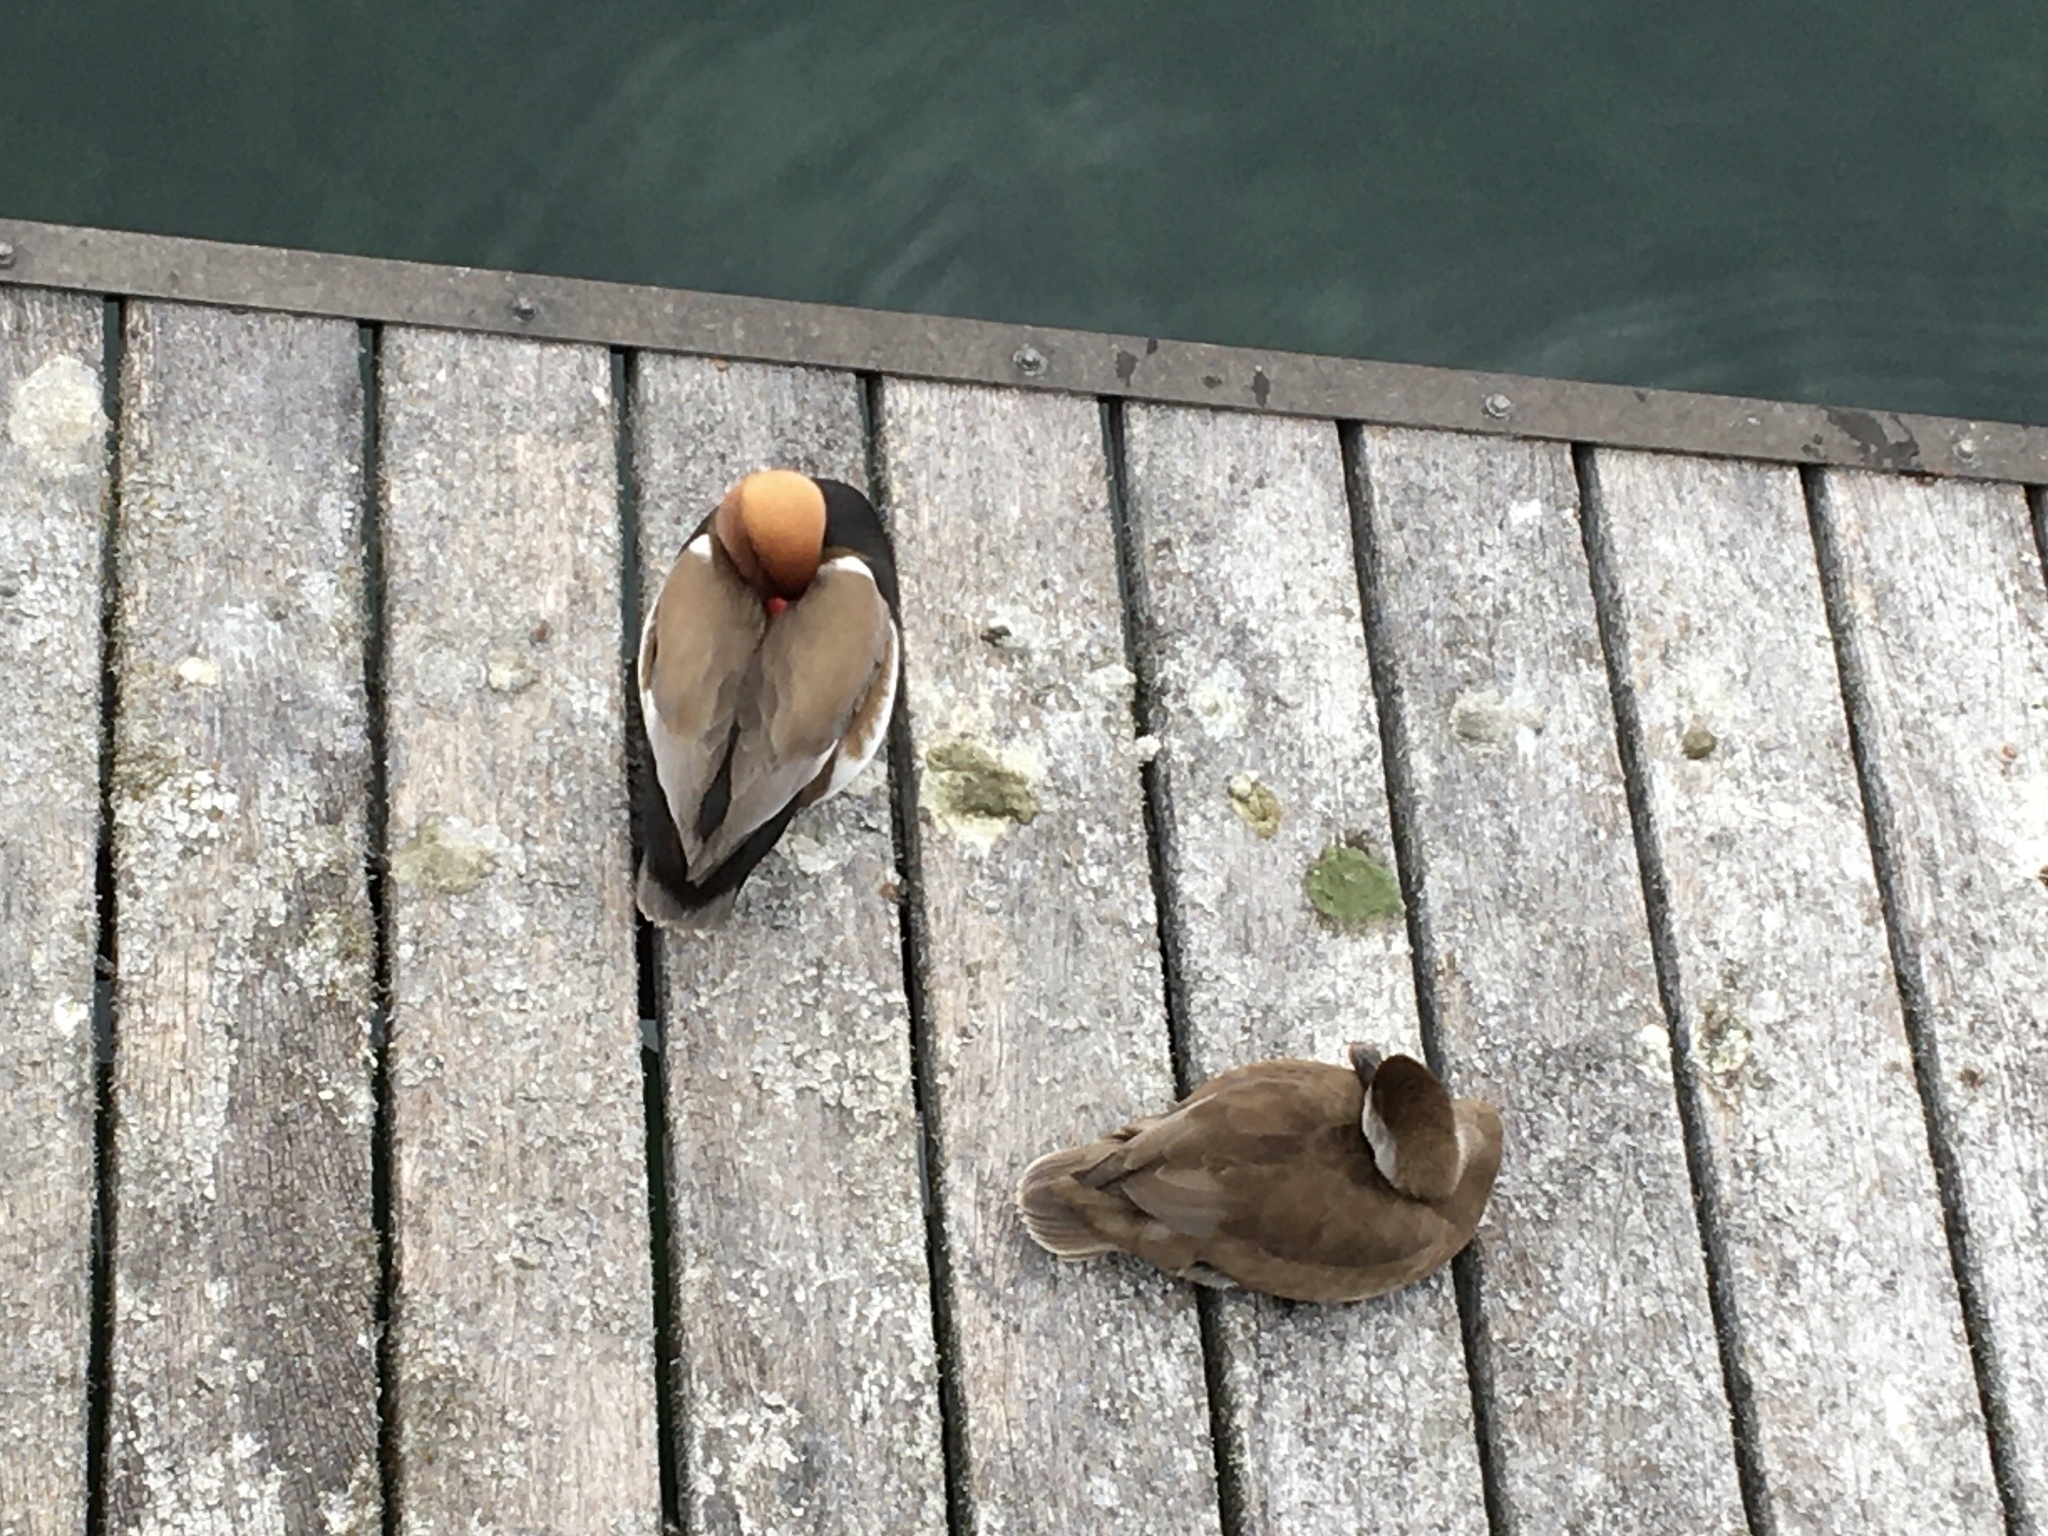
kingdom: Animalia
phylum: Chordata
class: Aves
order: Anseriformes
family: Anatidae
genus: Netta
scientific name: Netta rufina
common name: Red-crested pochard
